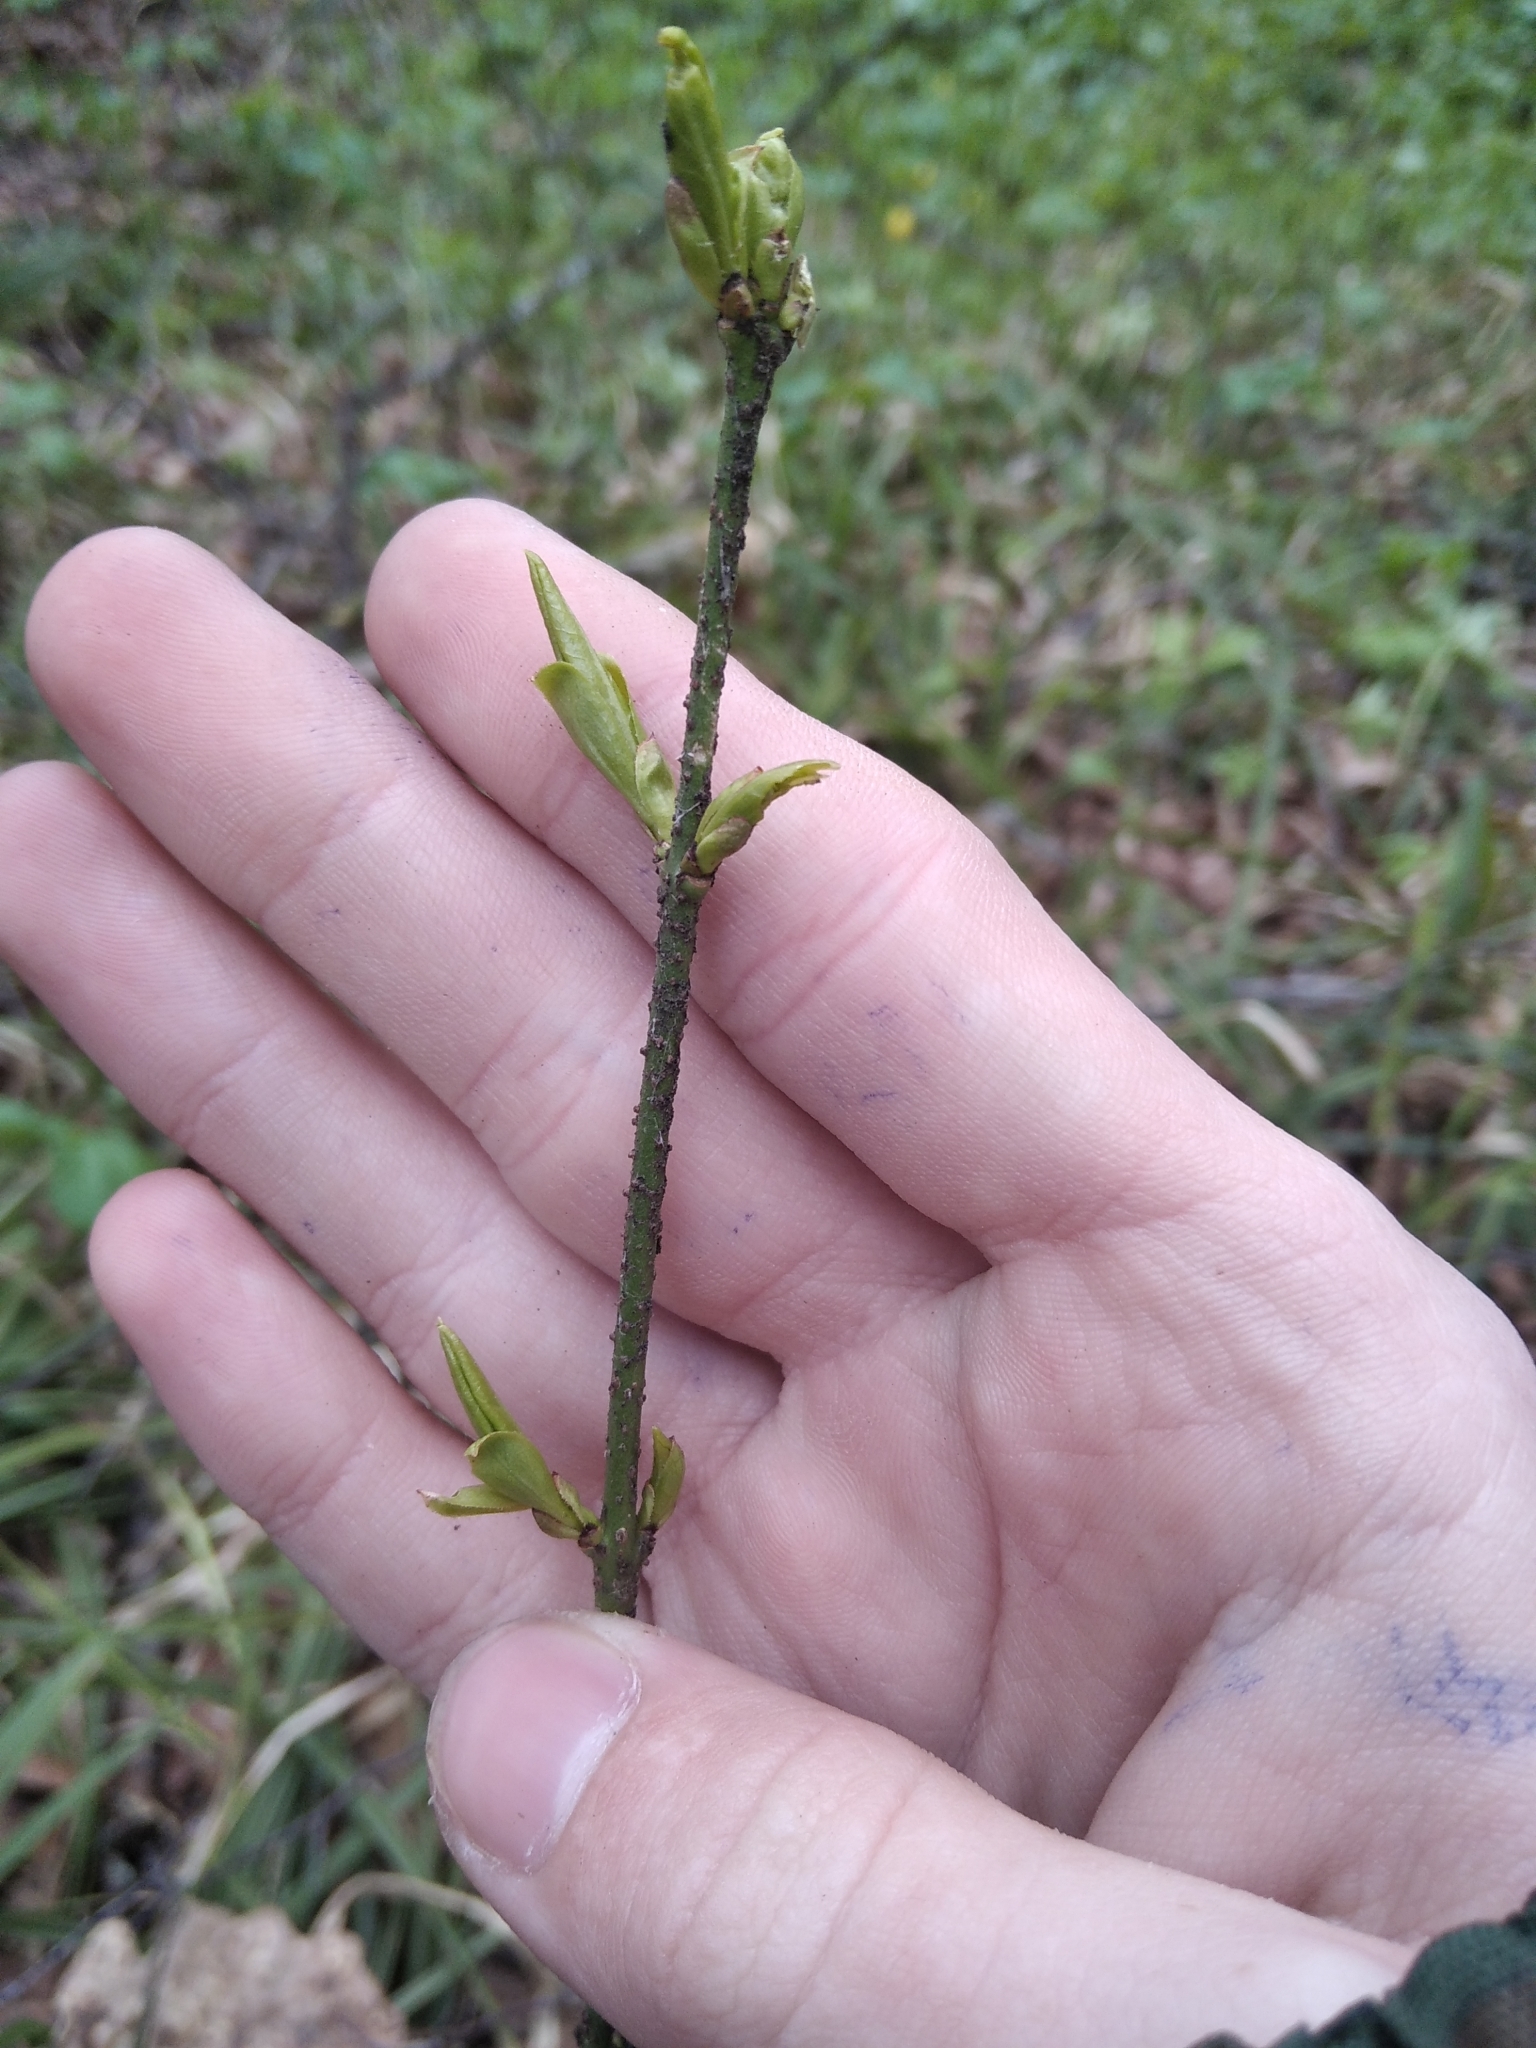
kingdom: Plantae
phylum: Tracheophyta
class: Magnoliopsida
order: Celastrales
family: Celastraceae
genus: Euonymus
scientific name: Euonymus verrucosus
